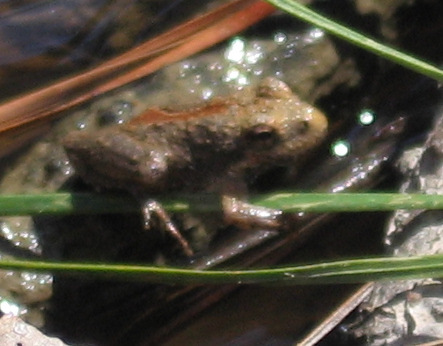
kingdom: Animalia
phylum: Chordata
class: Amphibia
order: Anura
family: Hylidae
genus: Acris
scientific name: Acris crepitans
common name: Northern cricket frog
